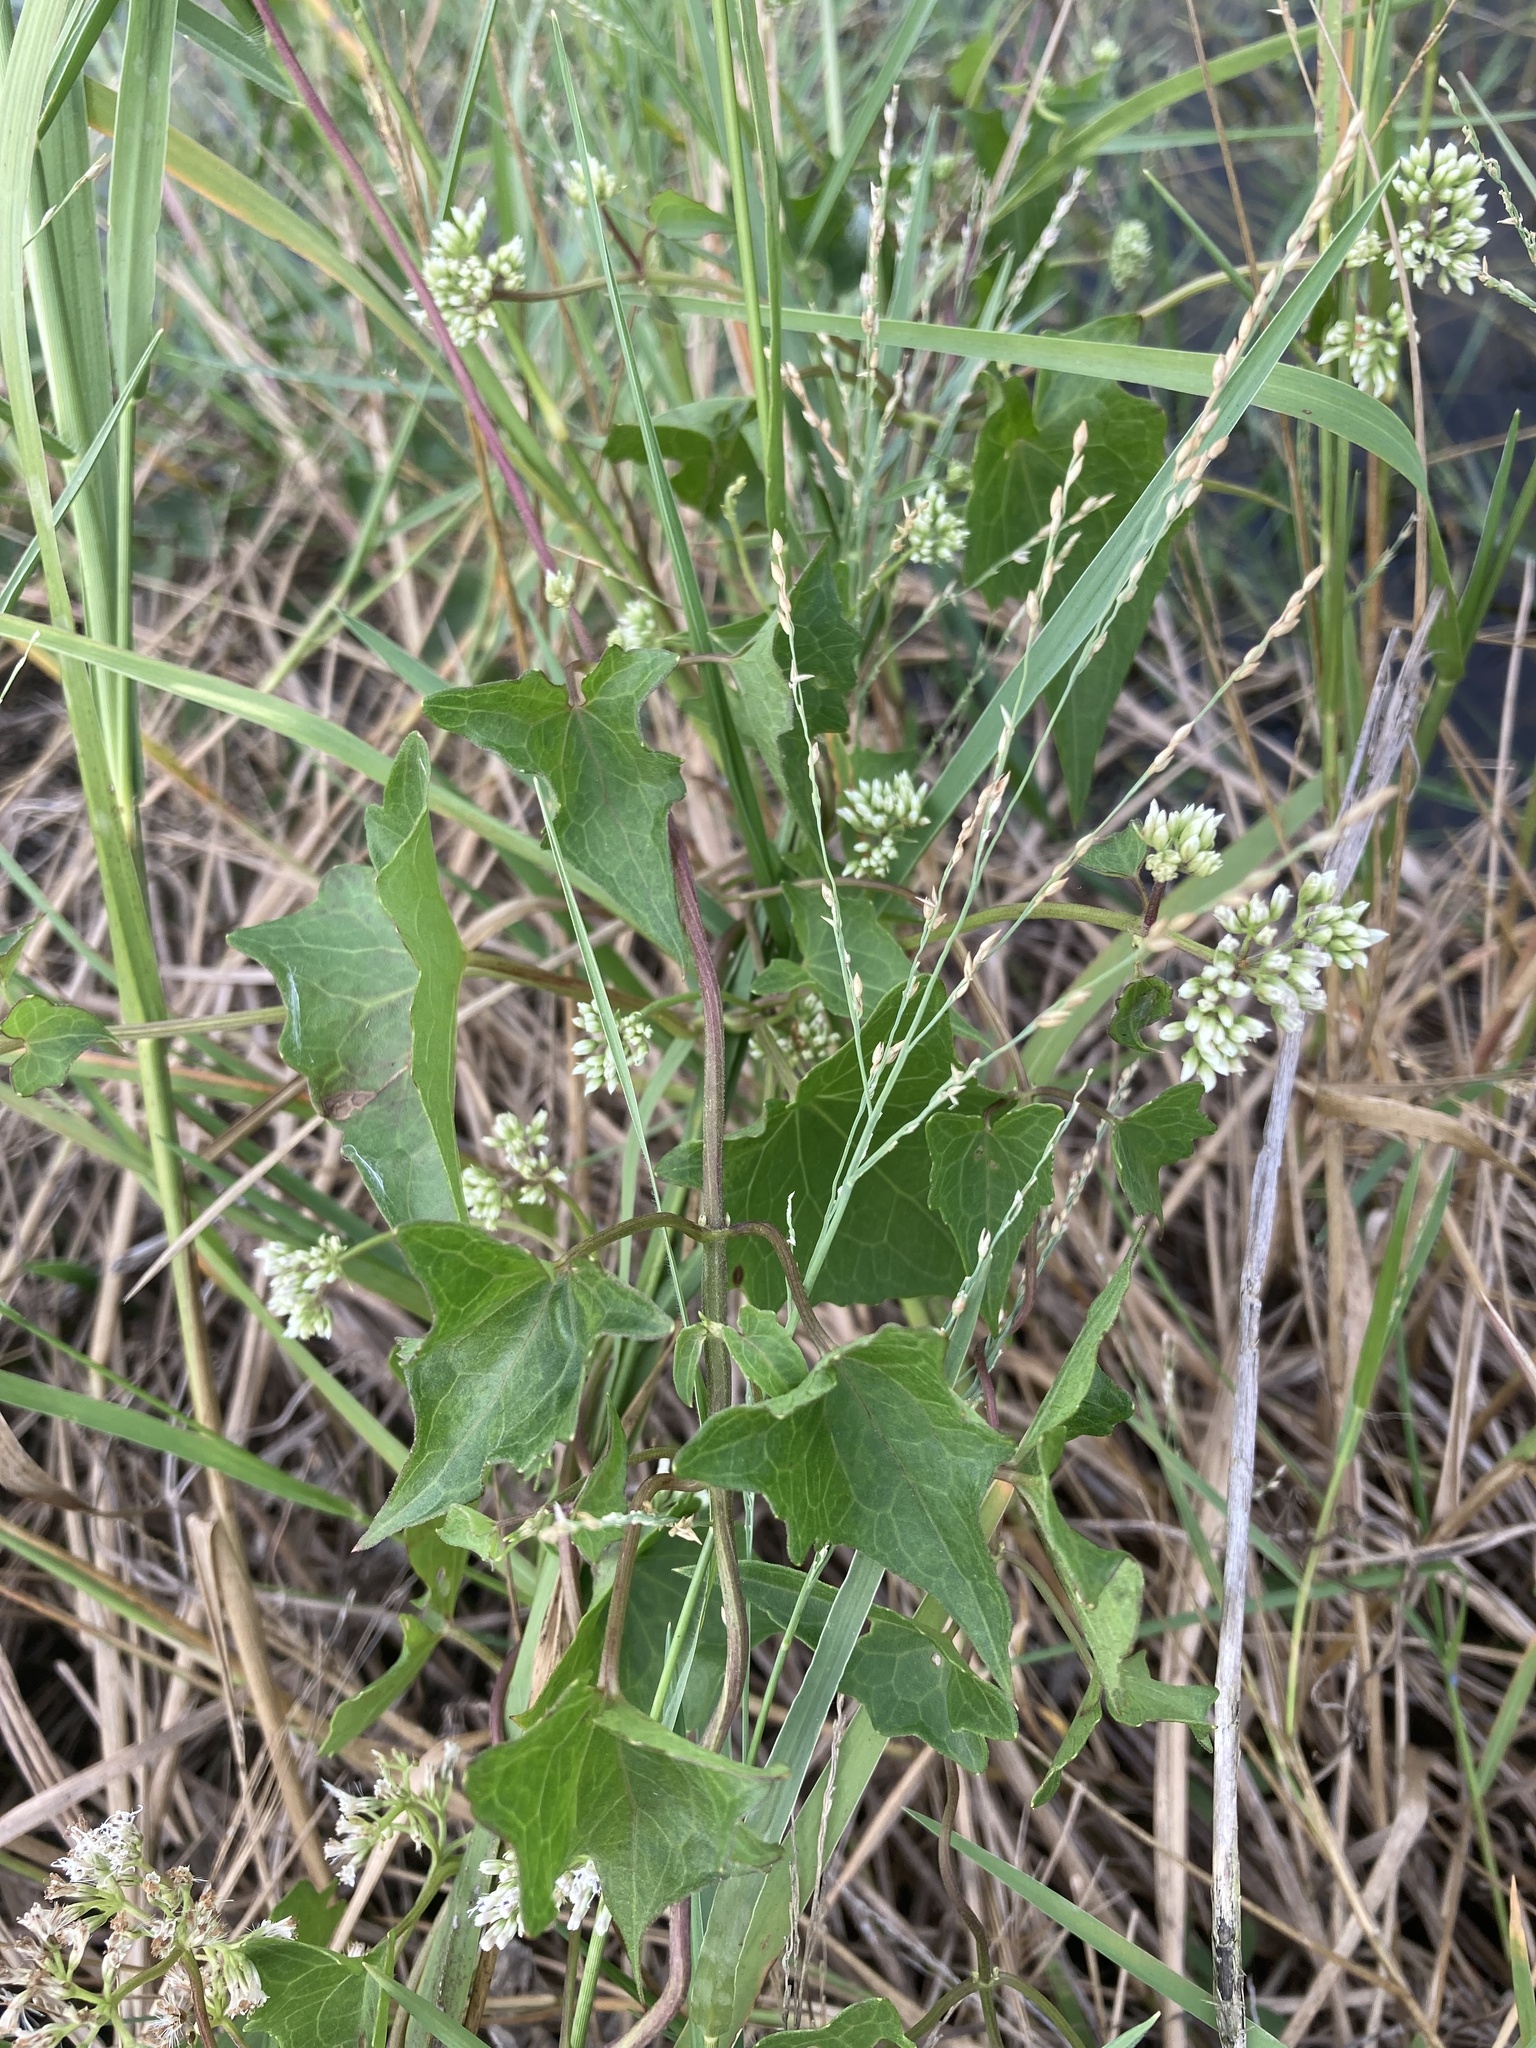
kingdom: Plantae
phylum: Tracheophyta
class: Magnoliopsida
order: Asterales
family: Asteraceae
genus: Mikania
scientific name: Mikania scandens
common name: Climbing hempvine
